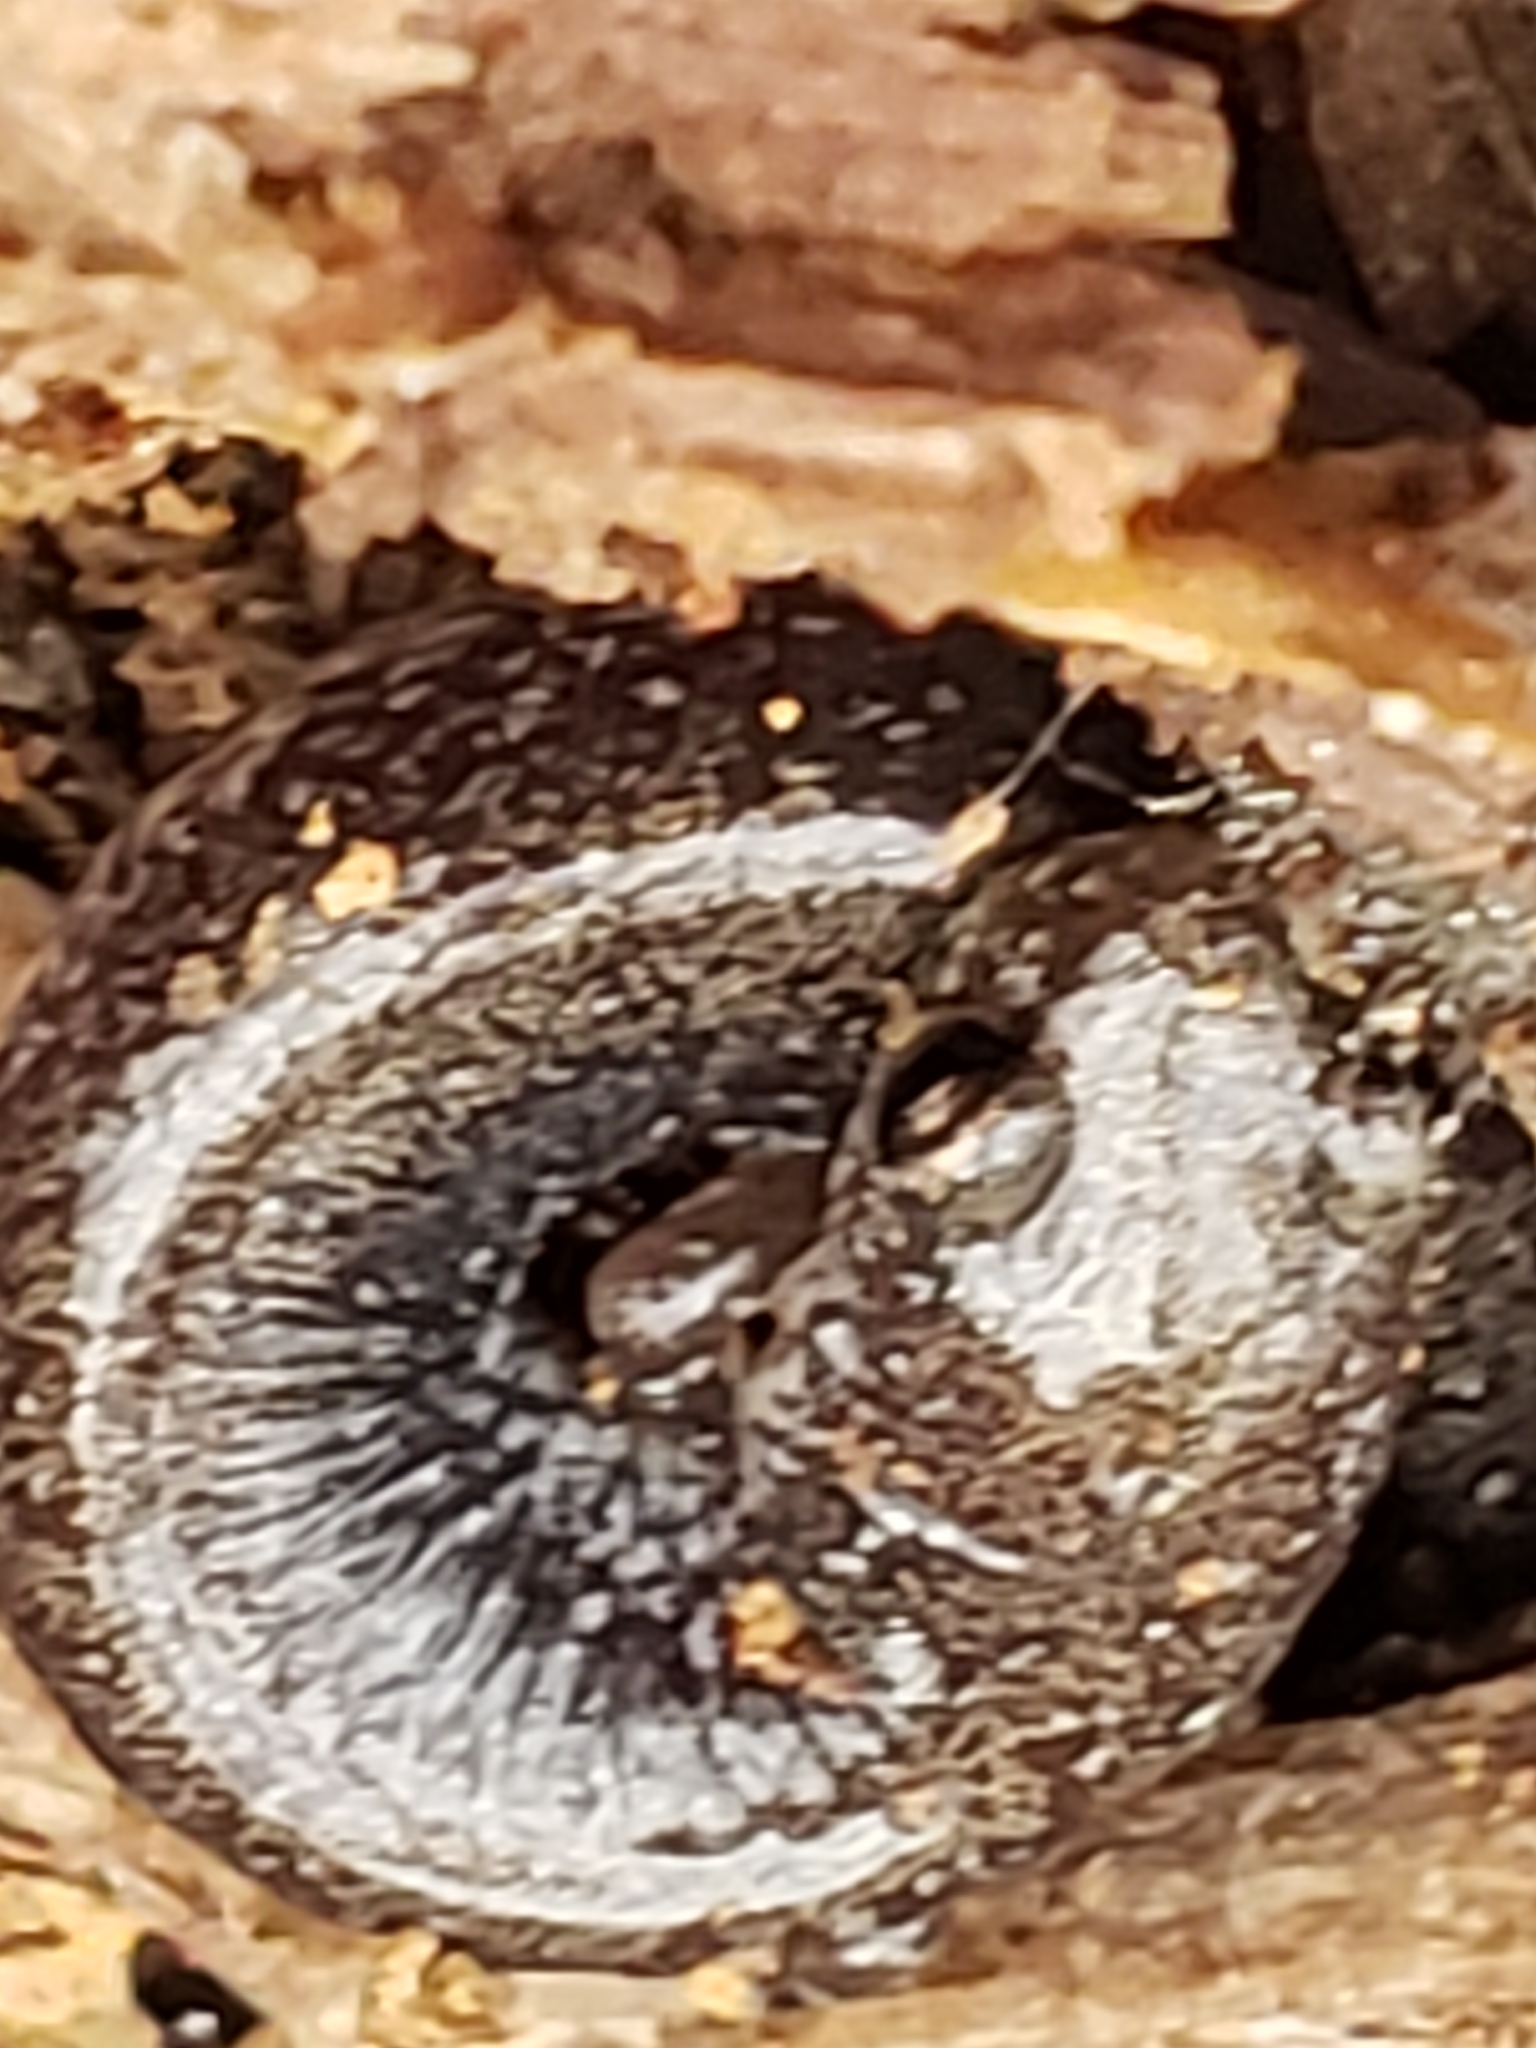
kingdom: Animalia
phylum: Chordata
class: Amphibia
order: Caudata
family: Plethodontidae
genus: Plethodon
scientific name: Plethodon cinereus
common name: Redback salamander
